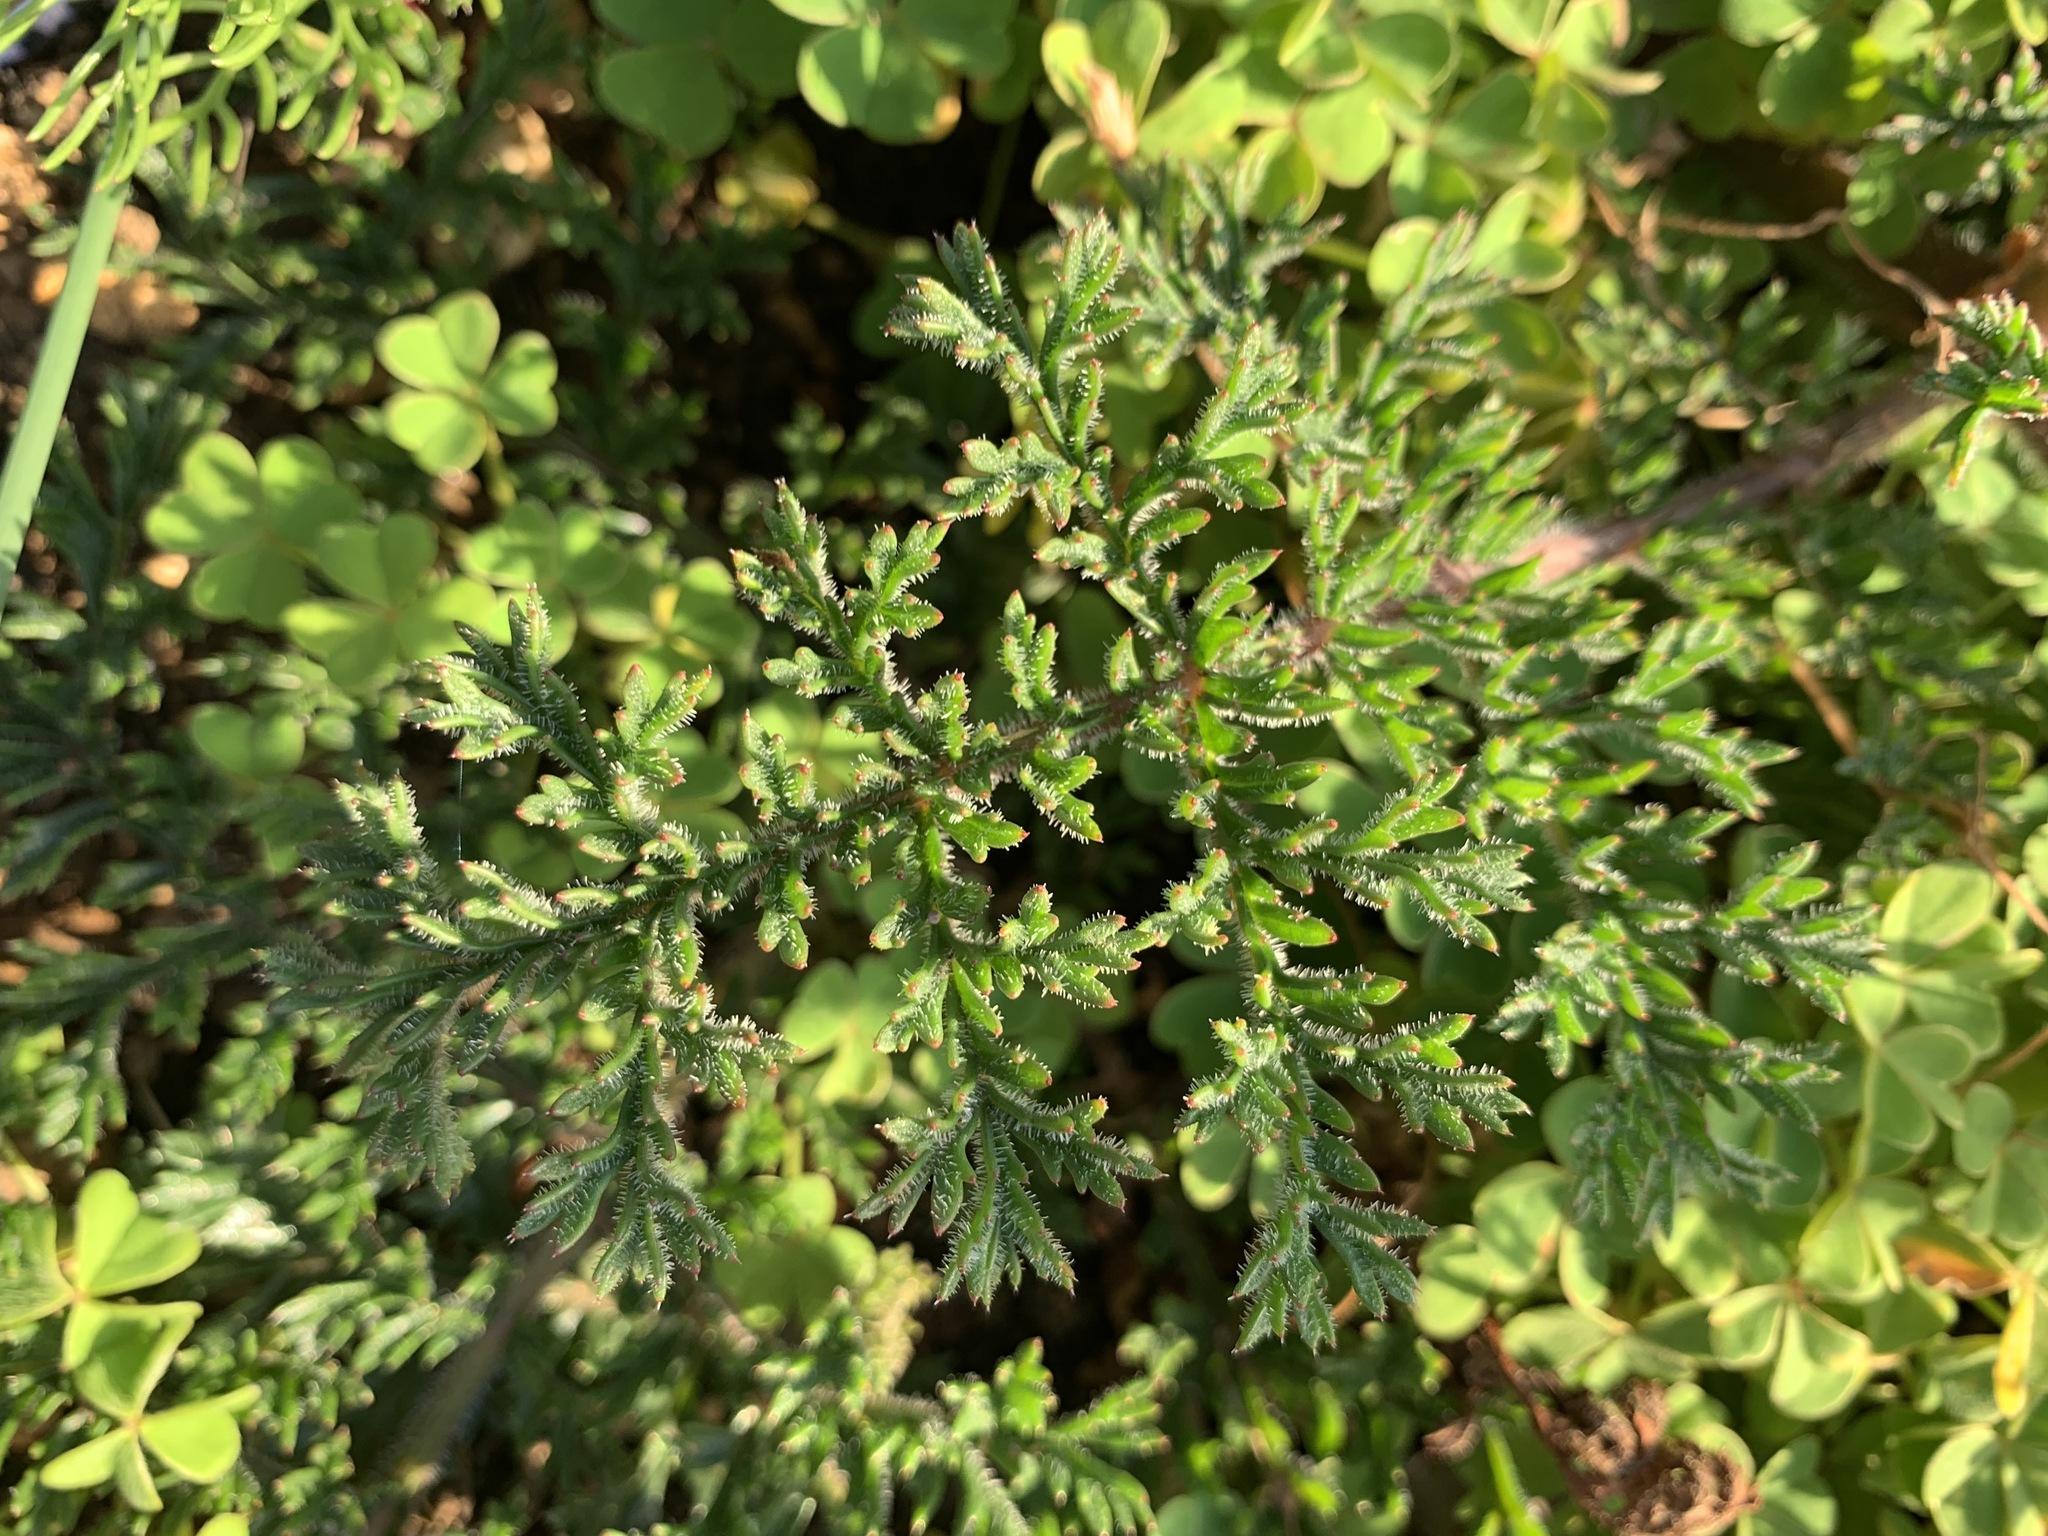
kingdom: Plantae
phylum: Tracheophyta
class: Magnoliopsida
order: Geraniales
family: Geraniaceae
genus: Pelargonium
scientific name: Pelargonium triste
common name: Night-scent pelargonium
